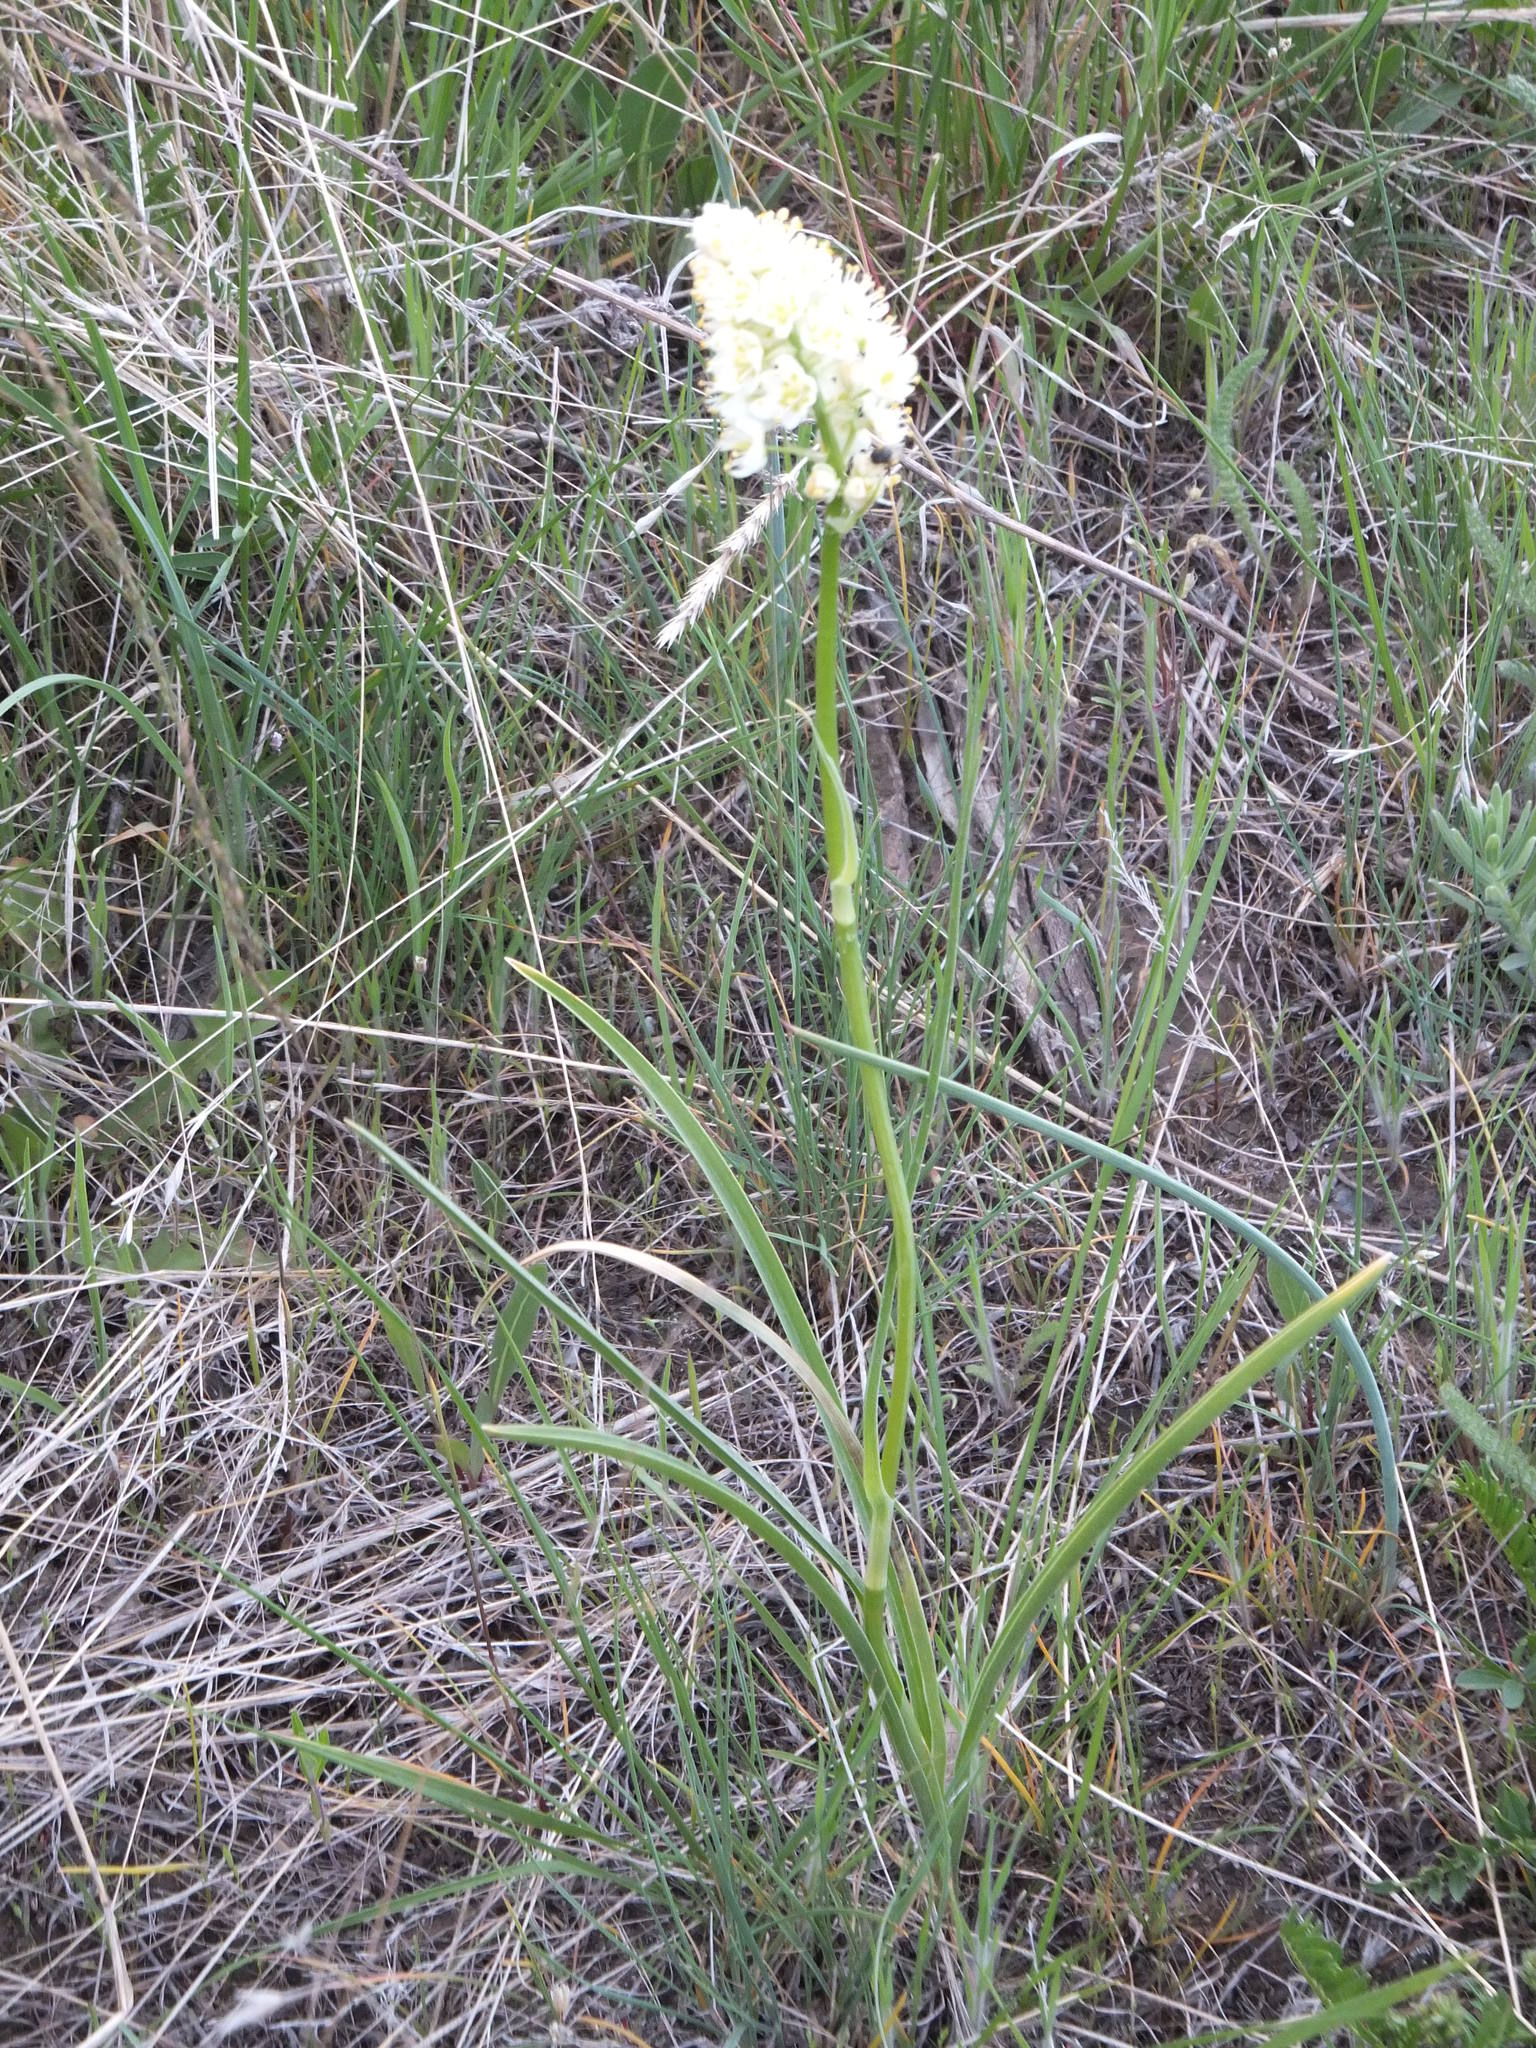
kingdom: Plantae
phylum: Tracheophyta
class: Liliopsida
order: Liliales
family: Melanthiaceae
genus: Toxicoscordion
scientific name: Toxicoscordion venenosum
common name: Meadow death camas
